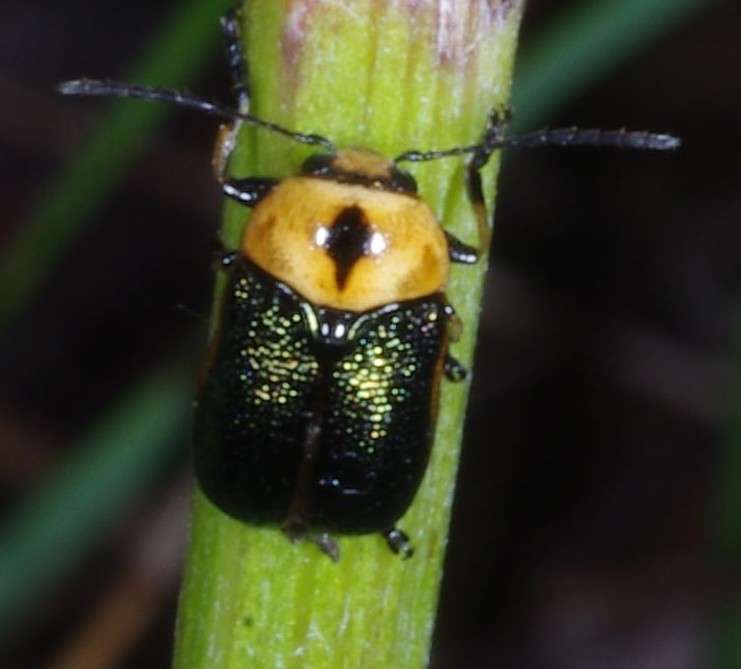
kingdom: Animalia
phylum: Arthropoda
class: Insecta
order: Coleoptera
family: Chrysomelidae
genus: Aporocera
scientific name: Aporocera
